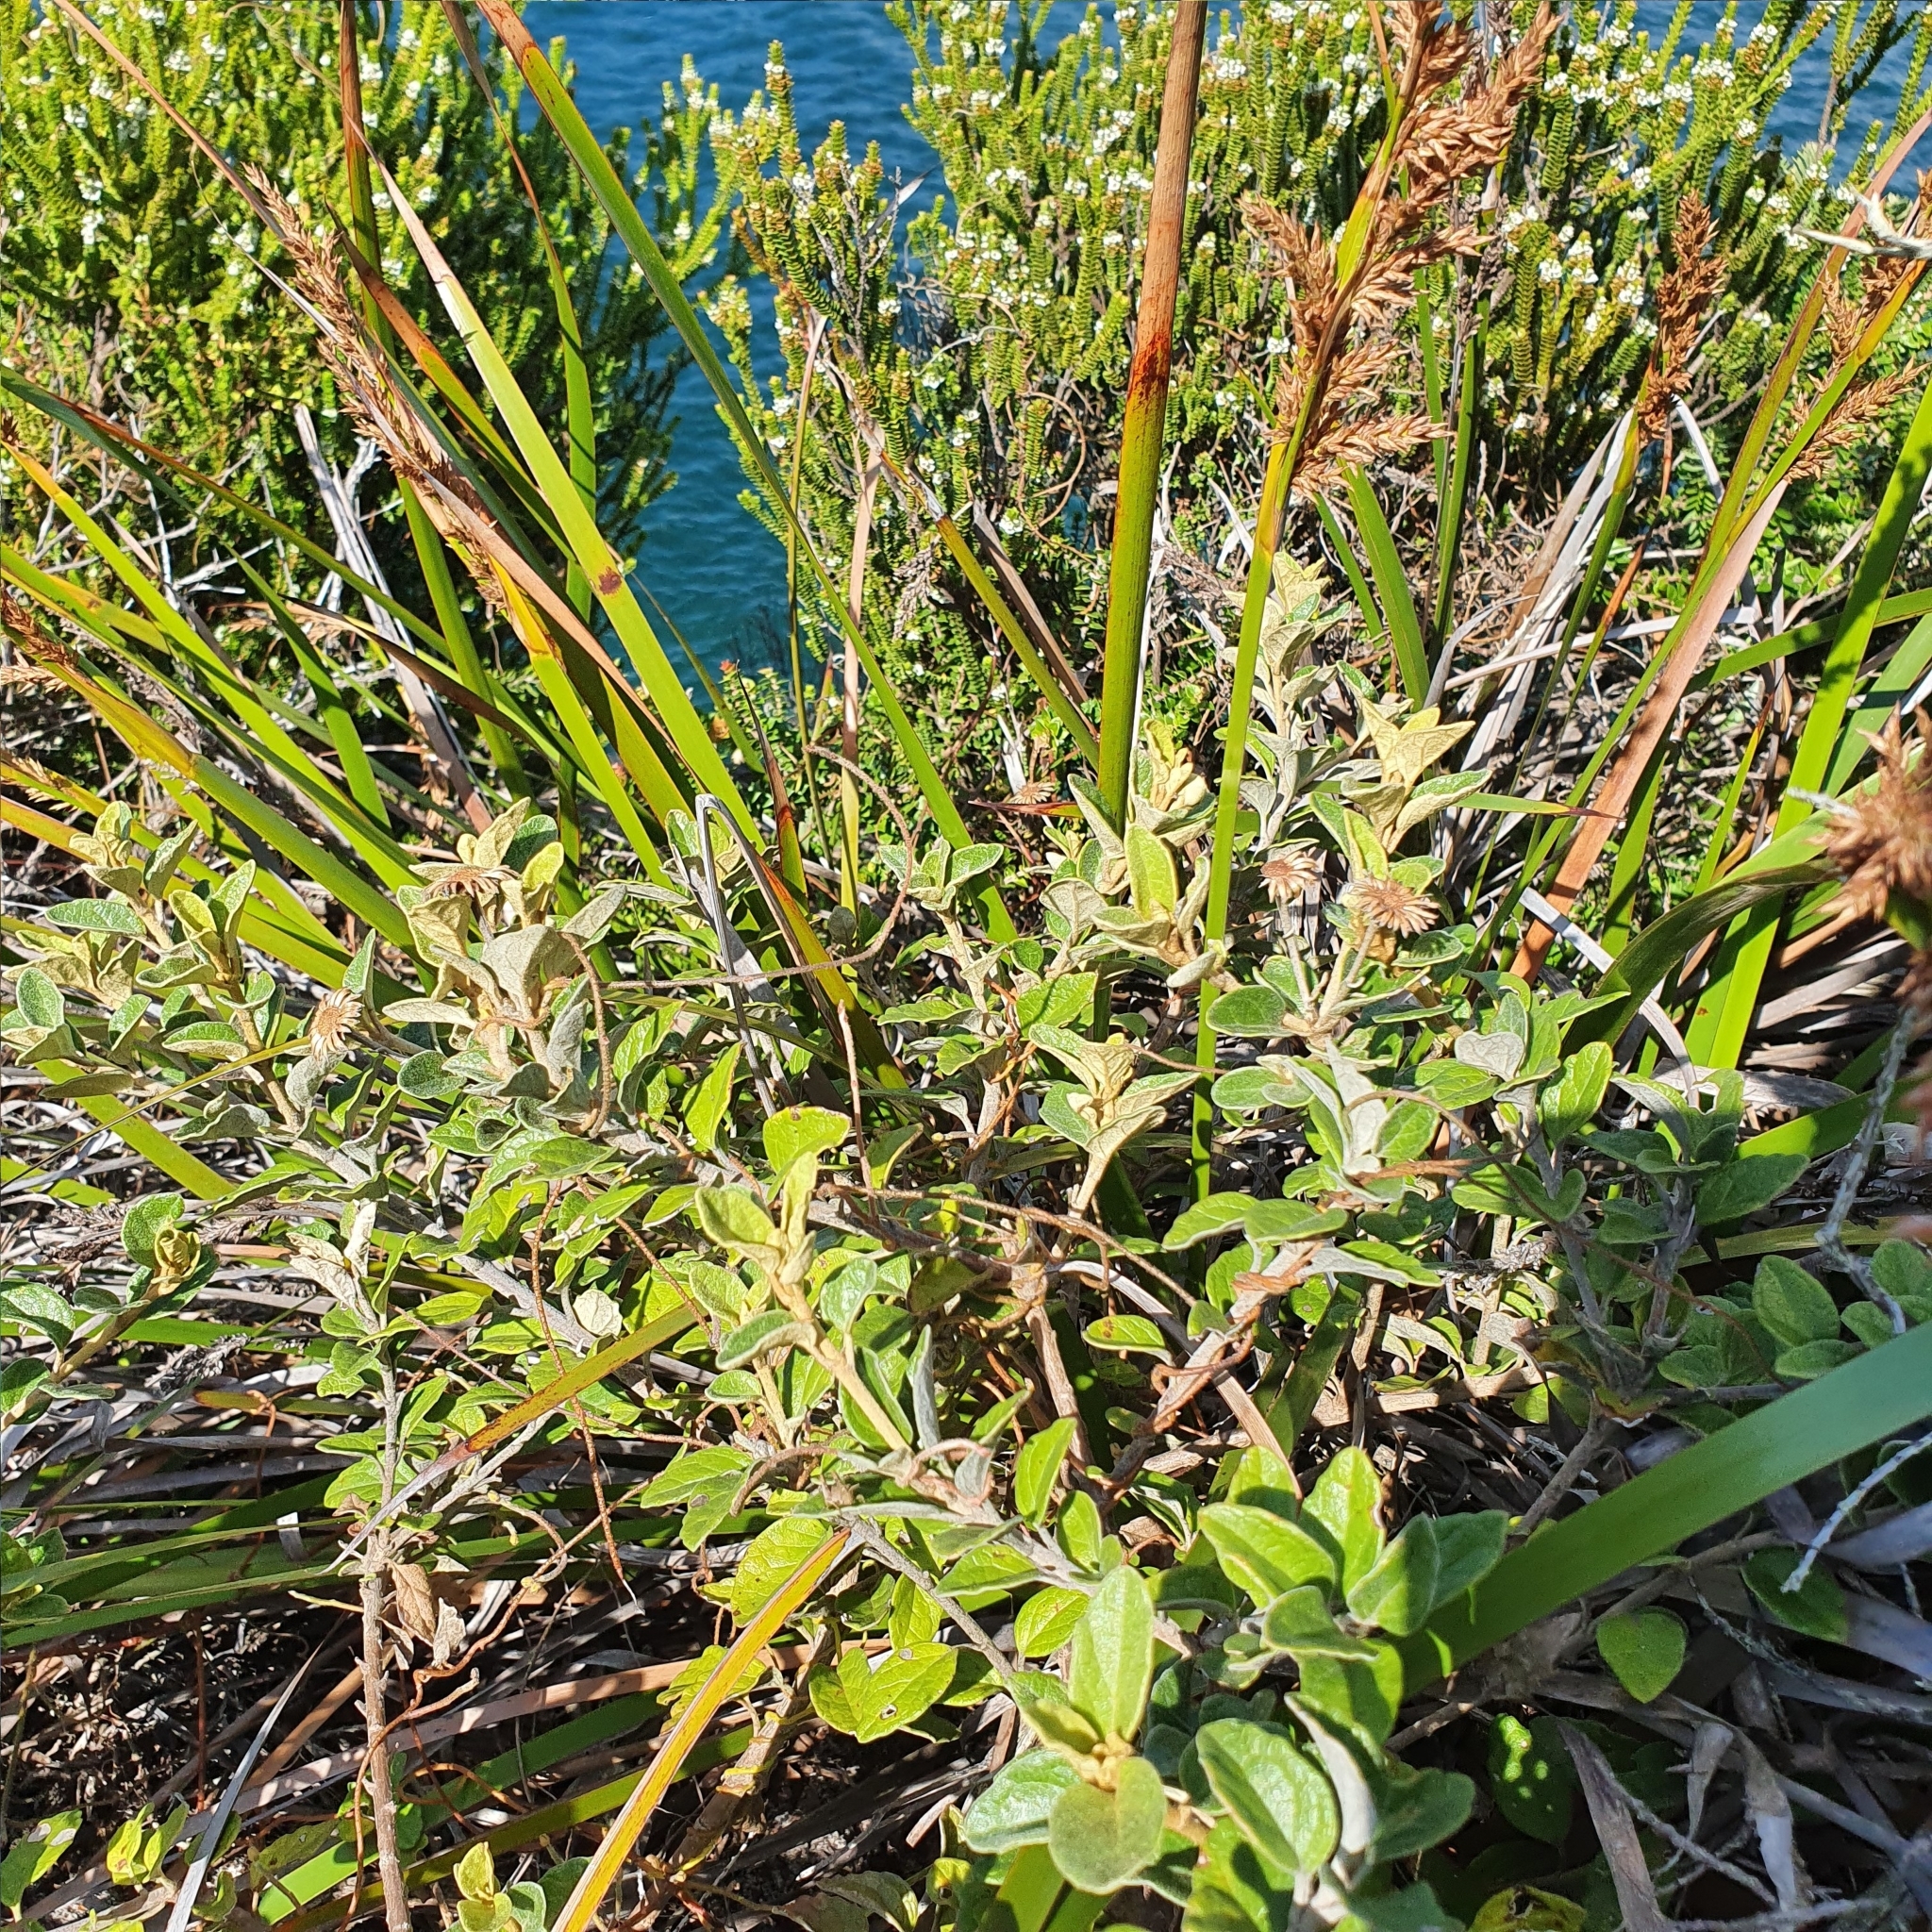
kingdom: Plantae
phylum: Tracheophyta
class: Magnoliopsida
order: Asterales
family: Asteraceae
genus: Olearia
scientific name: Olearia tomentosa
